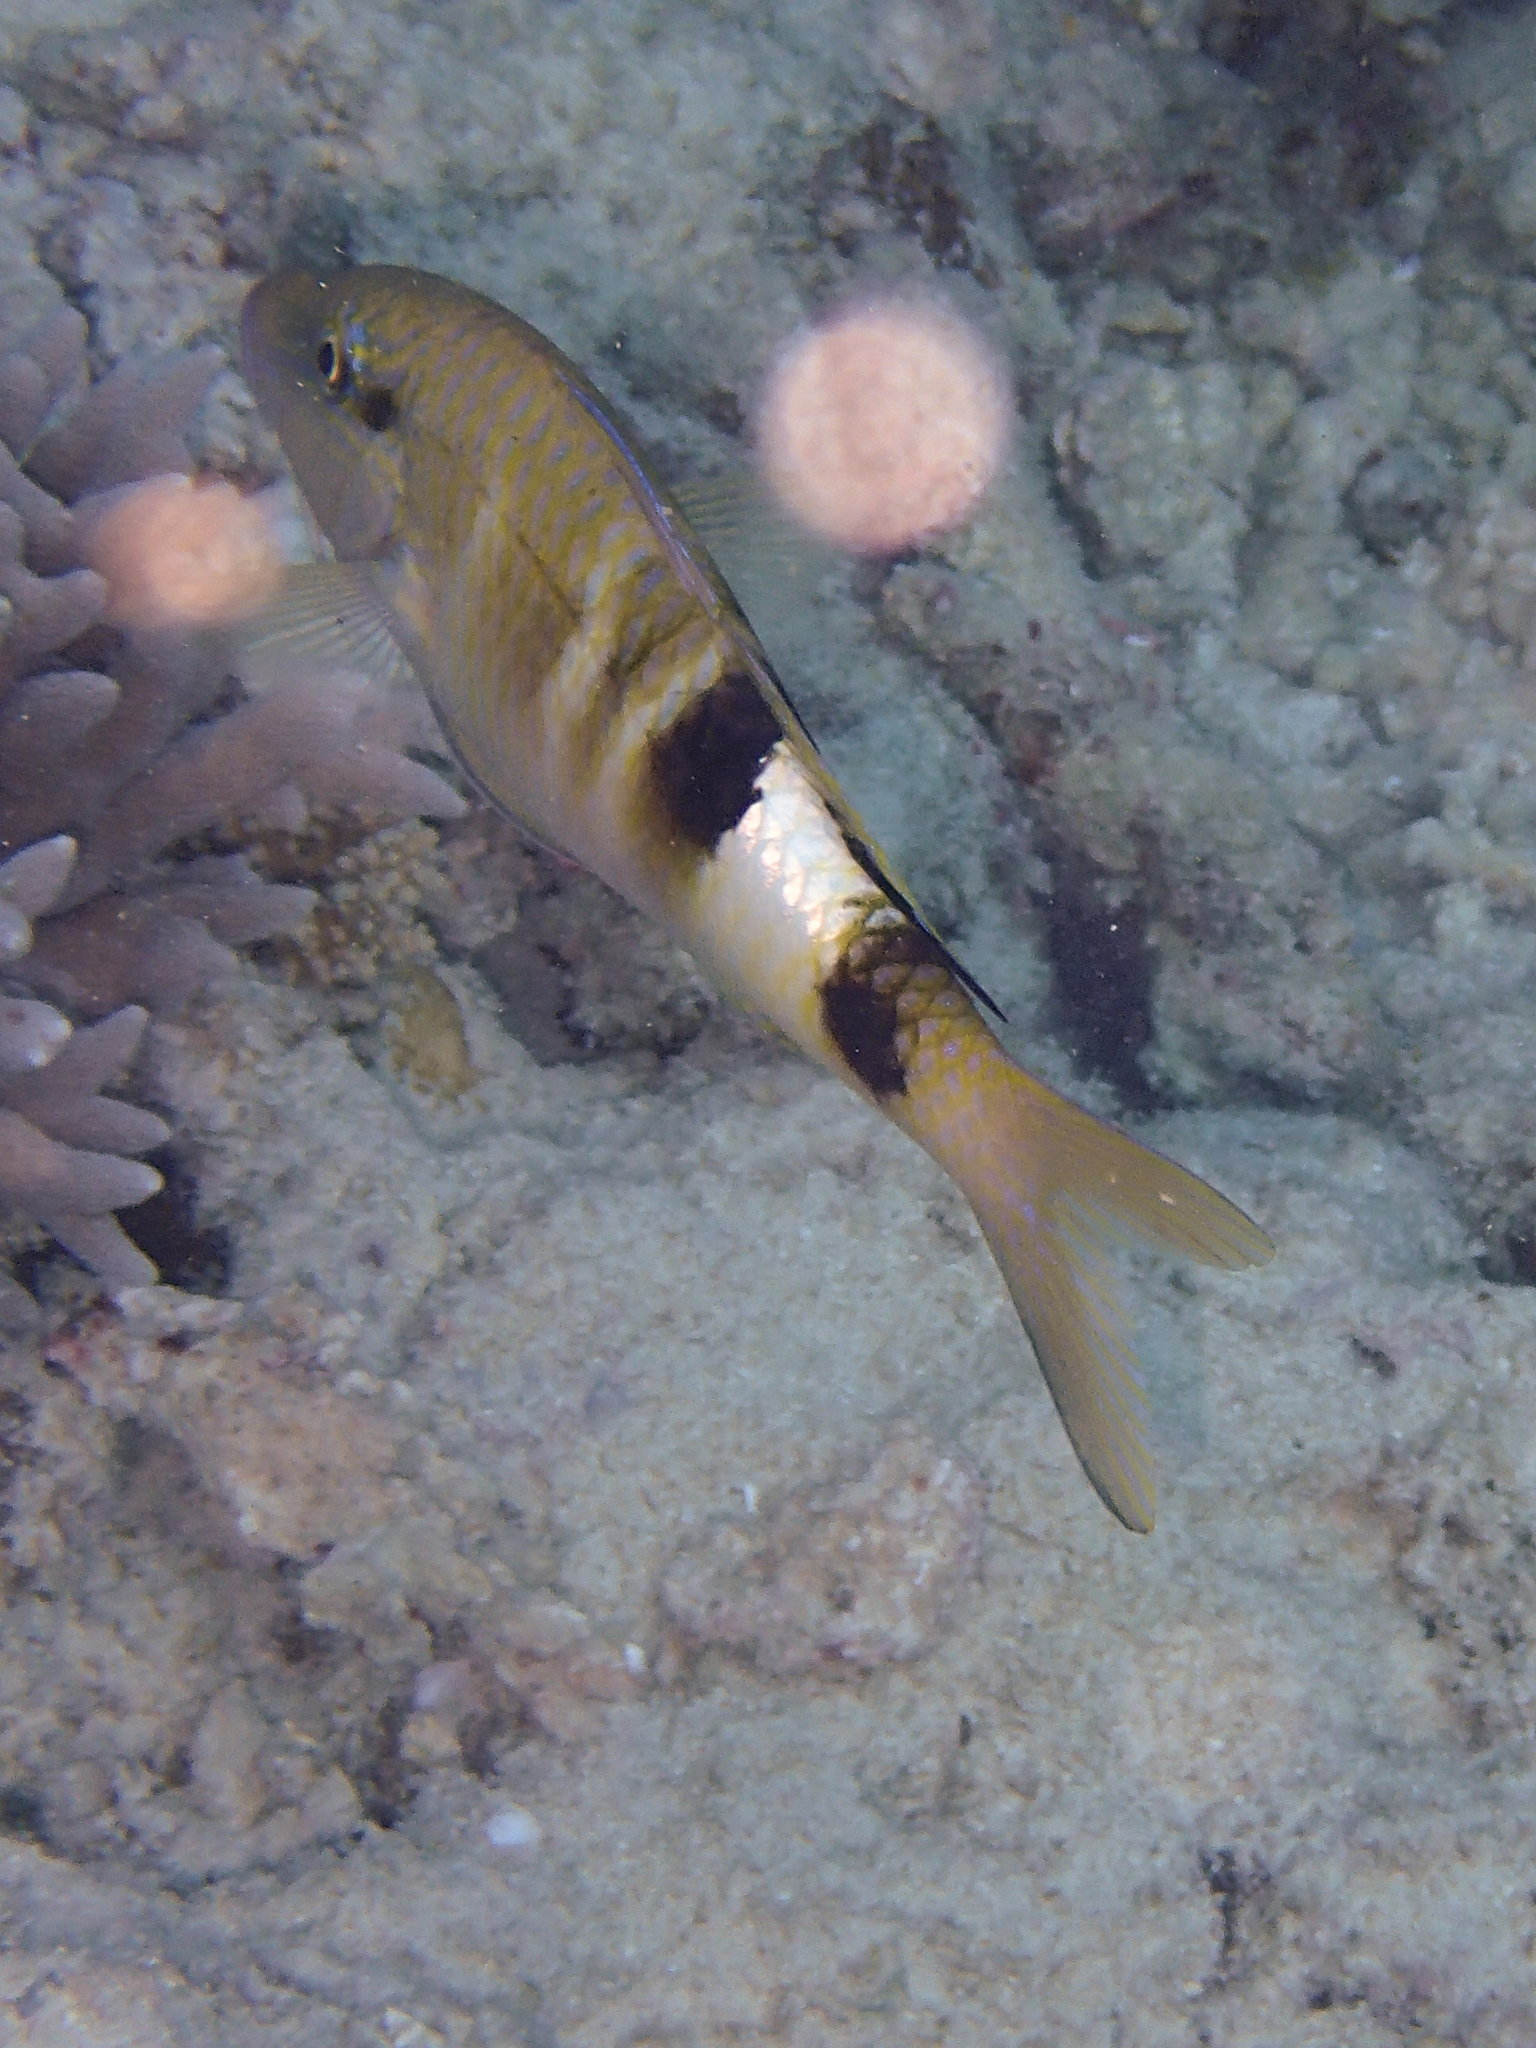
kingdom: Animalia
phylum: Chordata
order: Perciformes
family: Mullidae
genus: Parupeneus
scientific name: Parupeneus multifasciatus
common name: Manybar goatfish
